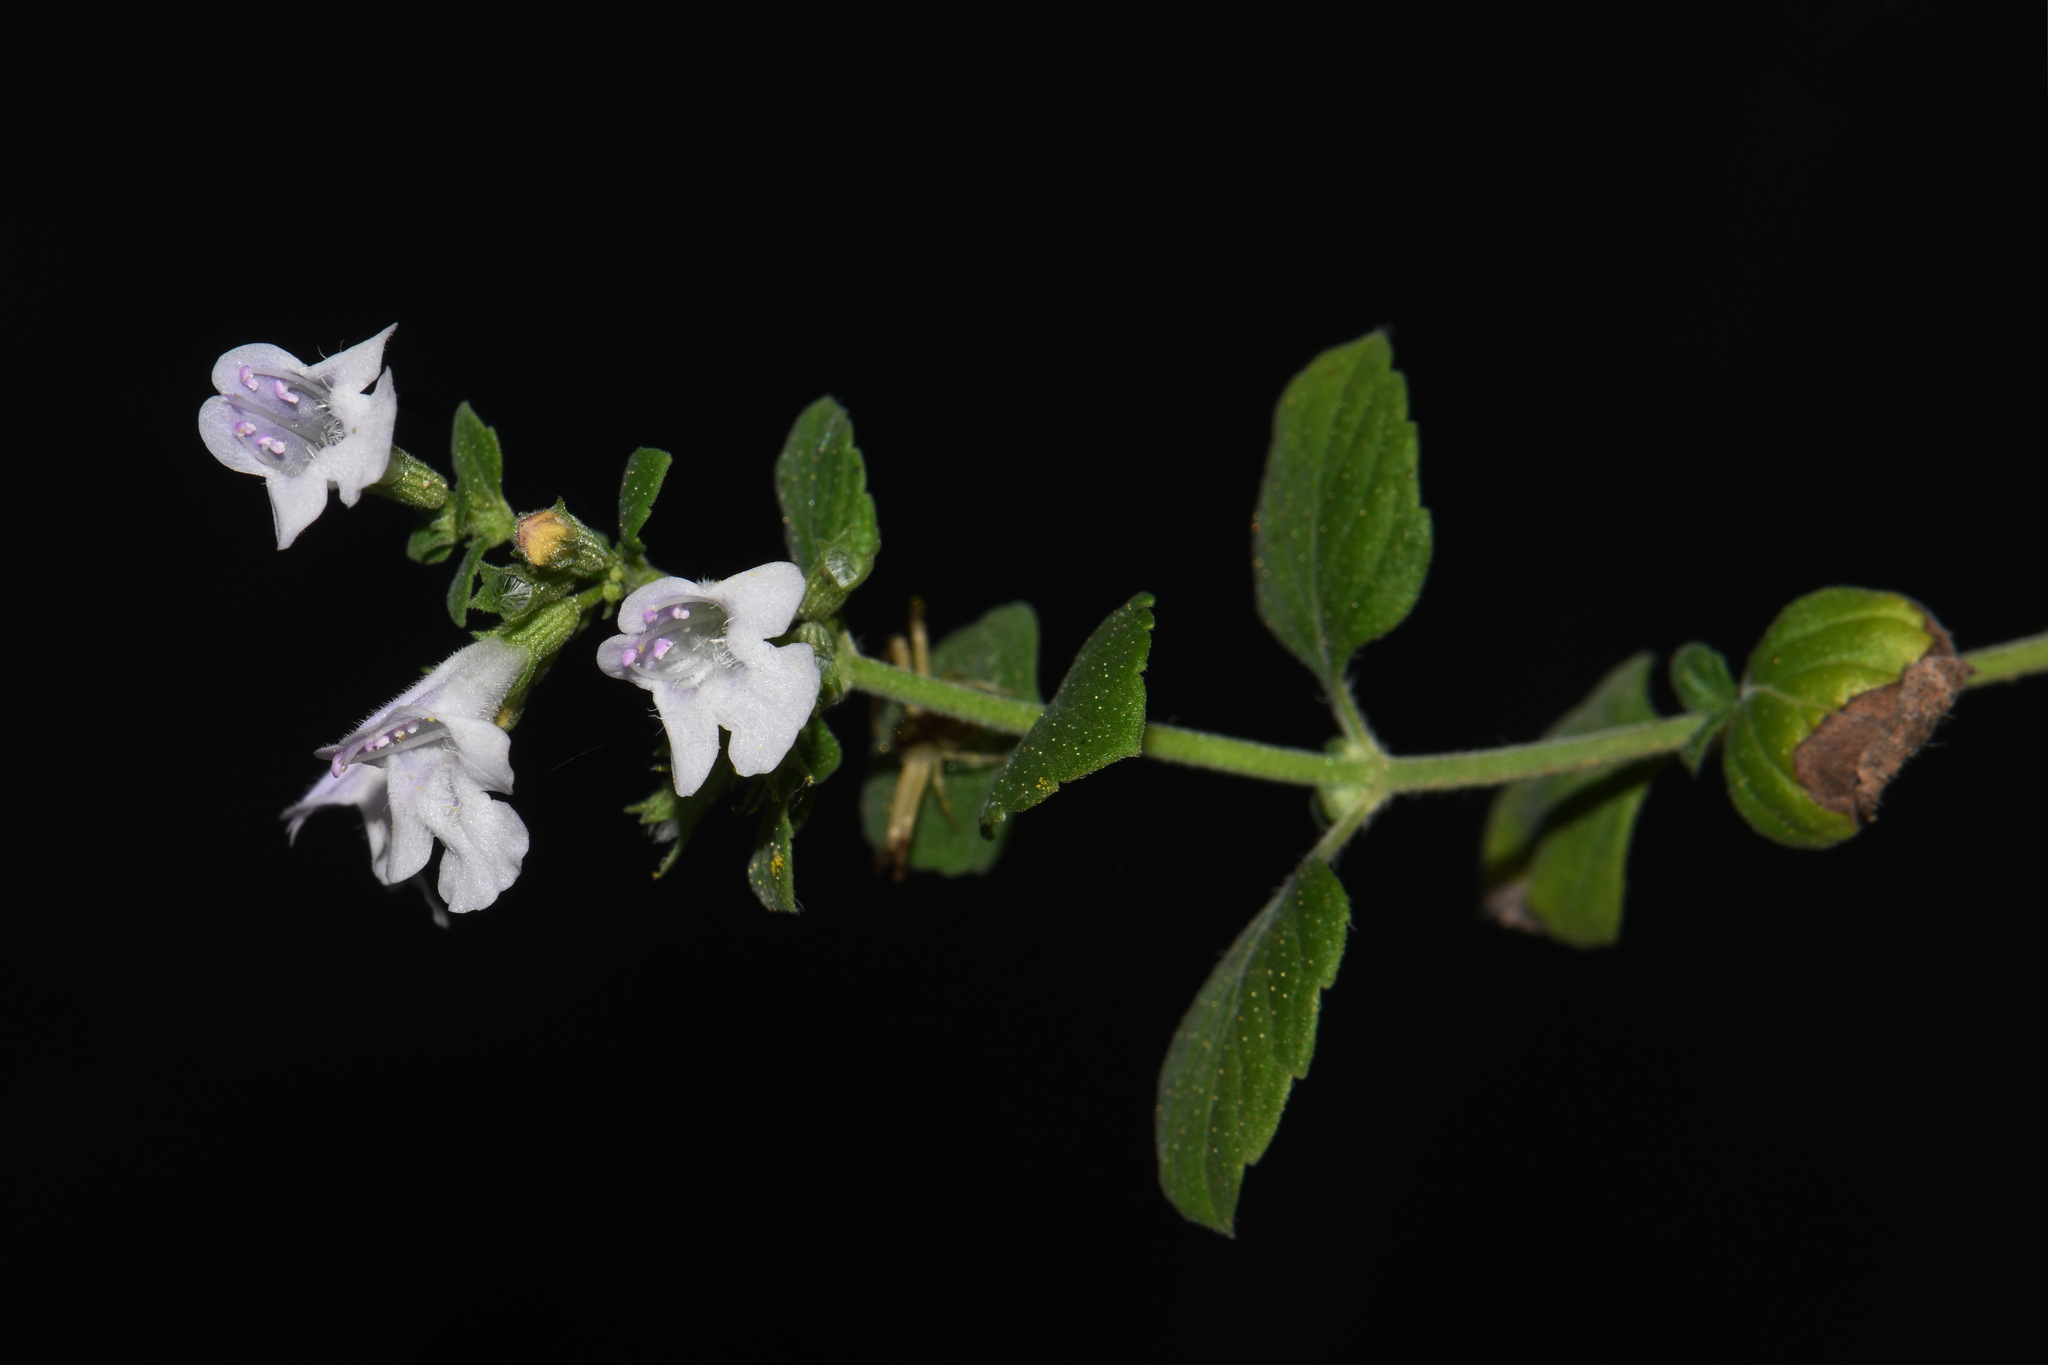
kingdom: Plantae
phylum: Tracheophyta
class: Magnoliopsida
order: Lamiales
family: Lamiaceae
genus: Clinopodium
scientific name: Clinopodium nepeta
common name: Lesser calamint
